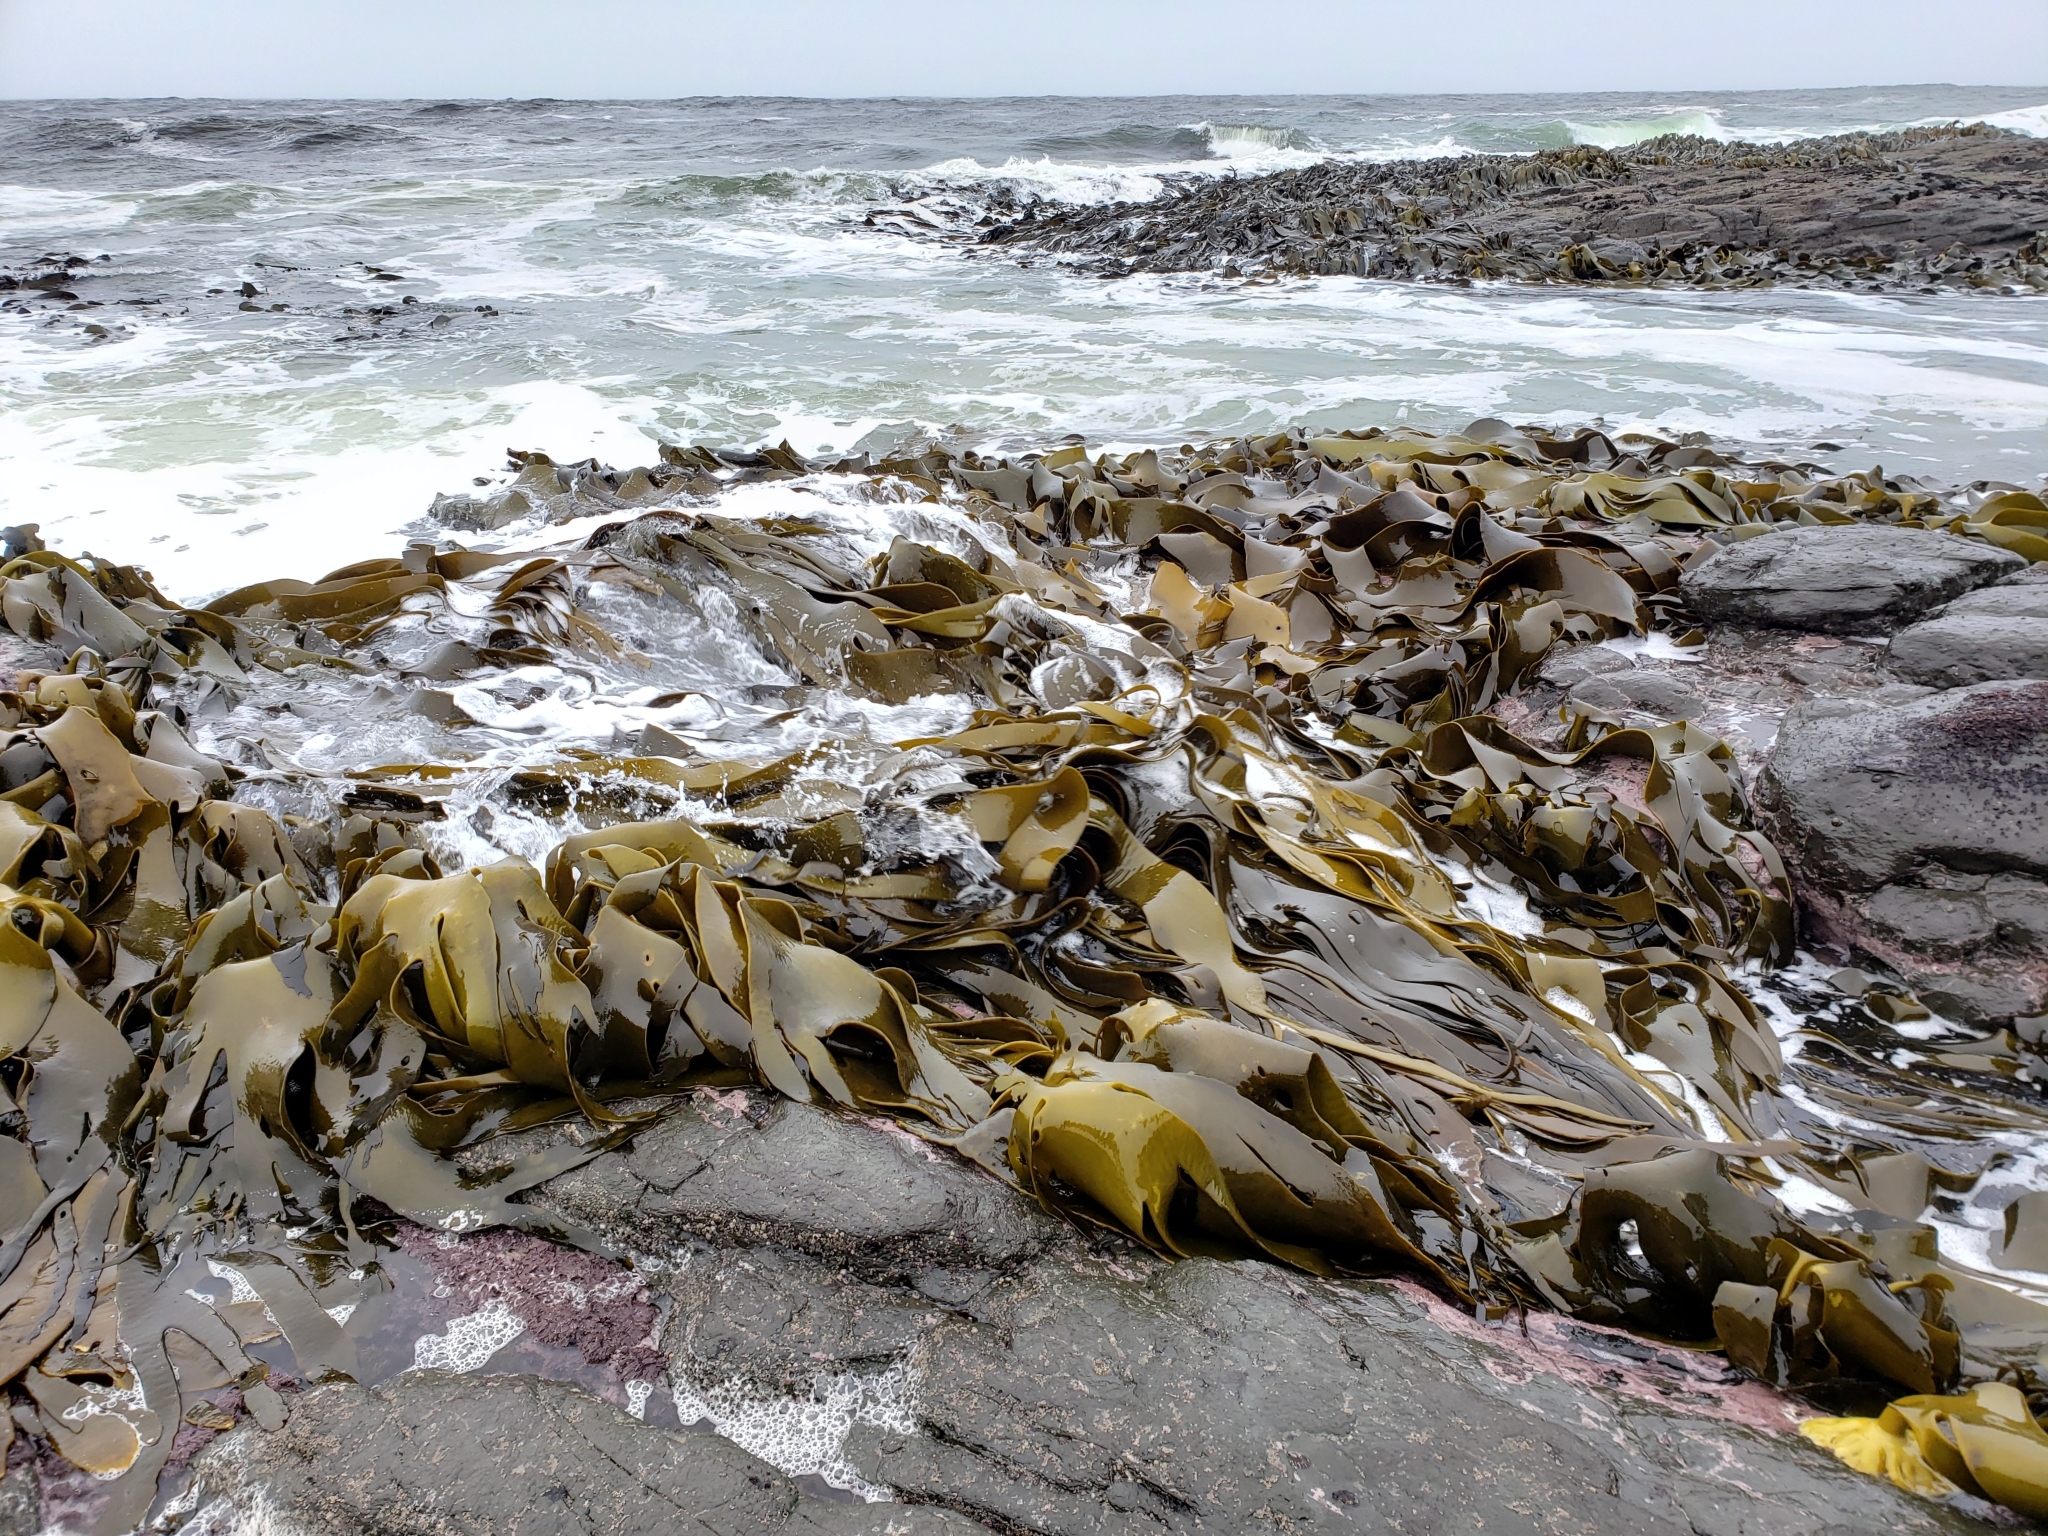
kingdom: Chromista
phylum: Ochrophyta
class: Phaeophyceae
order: Fucales
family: Durvillaeaceae
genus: Durvillaea
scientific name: Durvillaea antarctica
